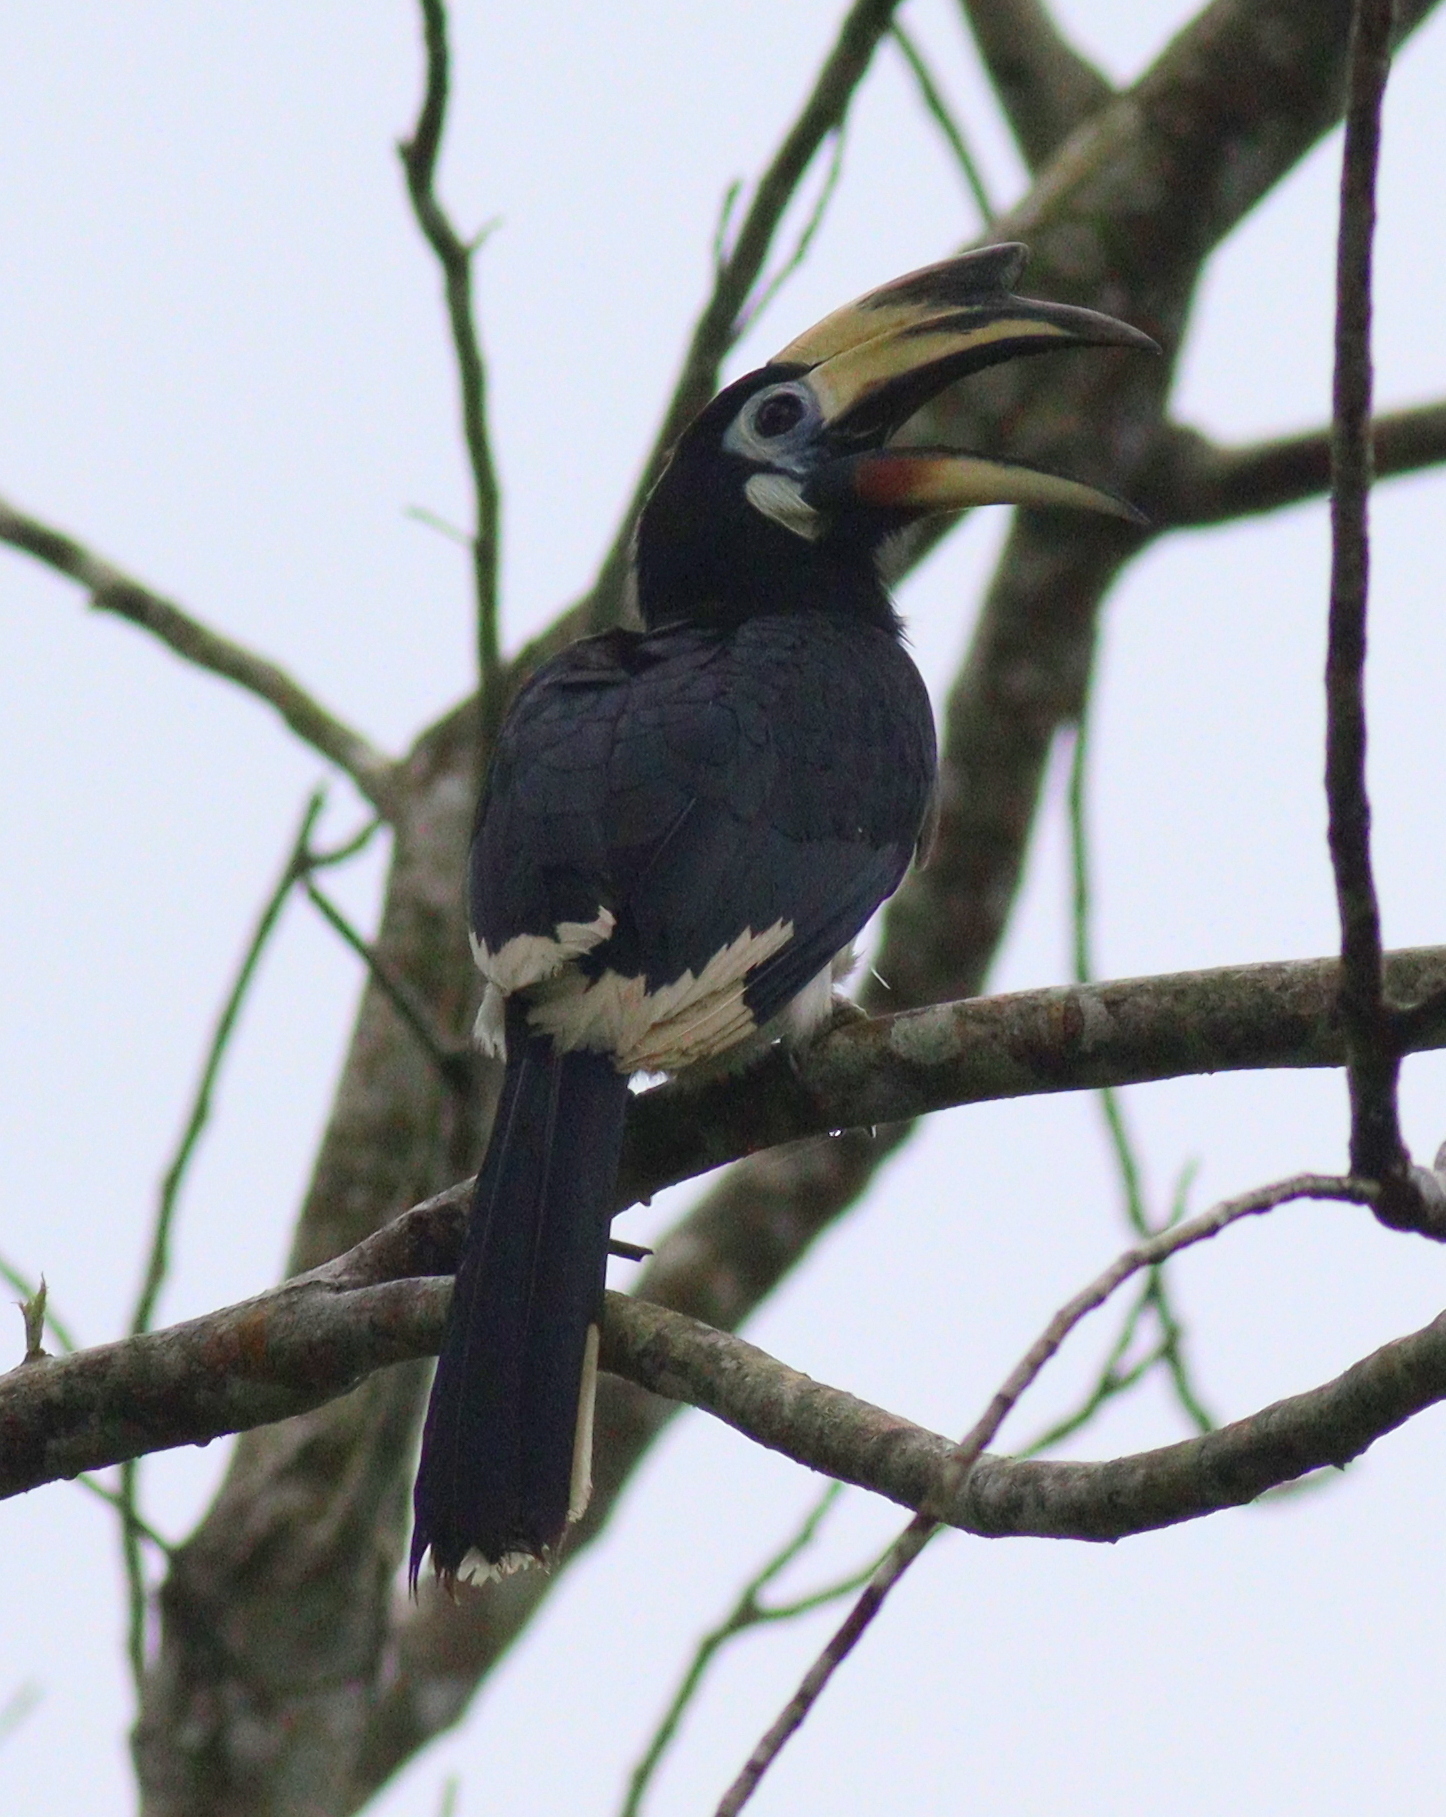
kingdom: Animalia
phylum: Chordata
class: Aves
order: Bucerotiformes
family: Bucerotidae
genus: Anthracoceros
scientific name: Anthracoceros albirostris
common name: Oriental pied-hornbill
